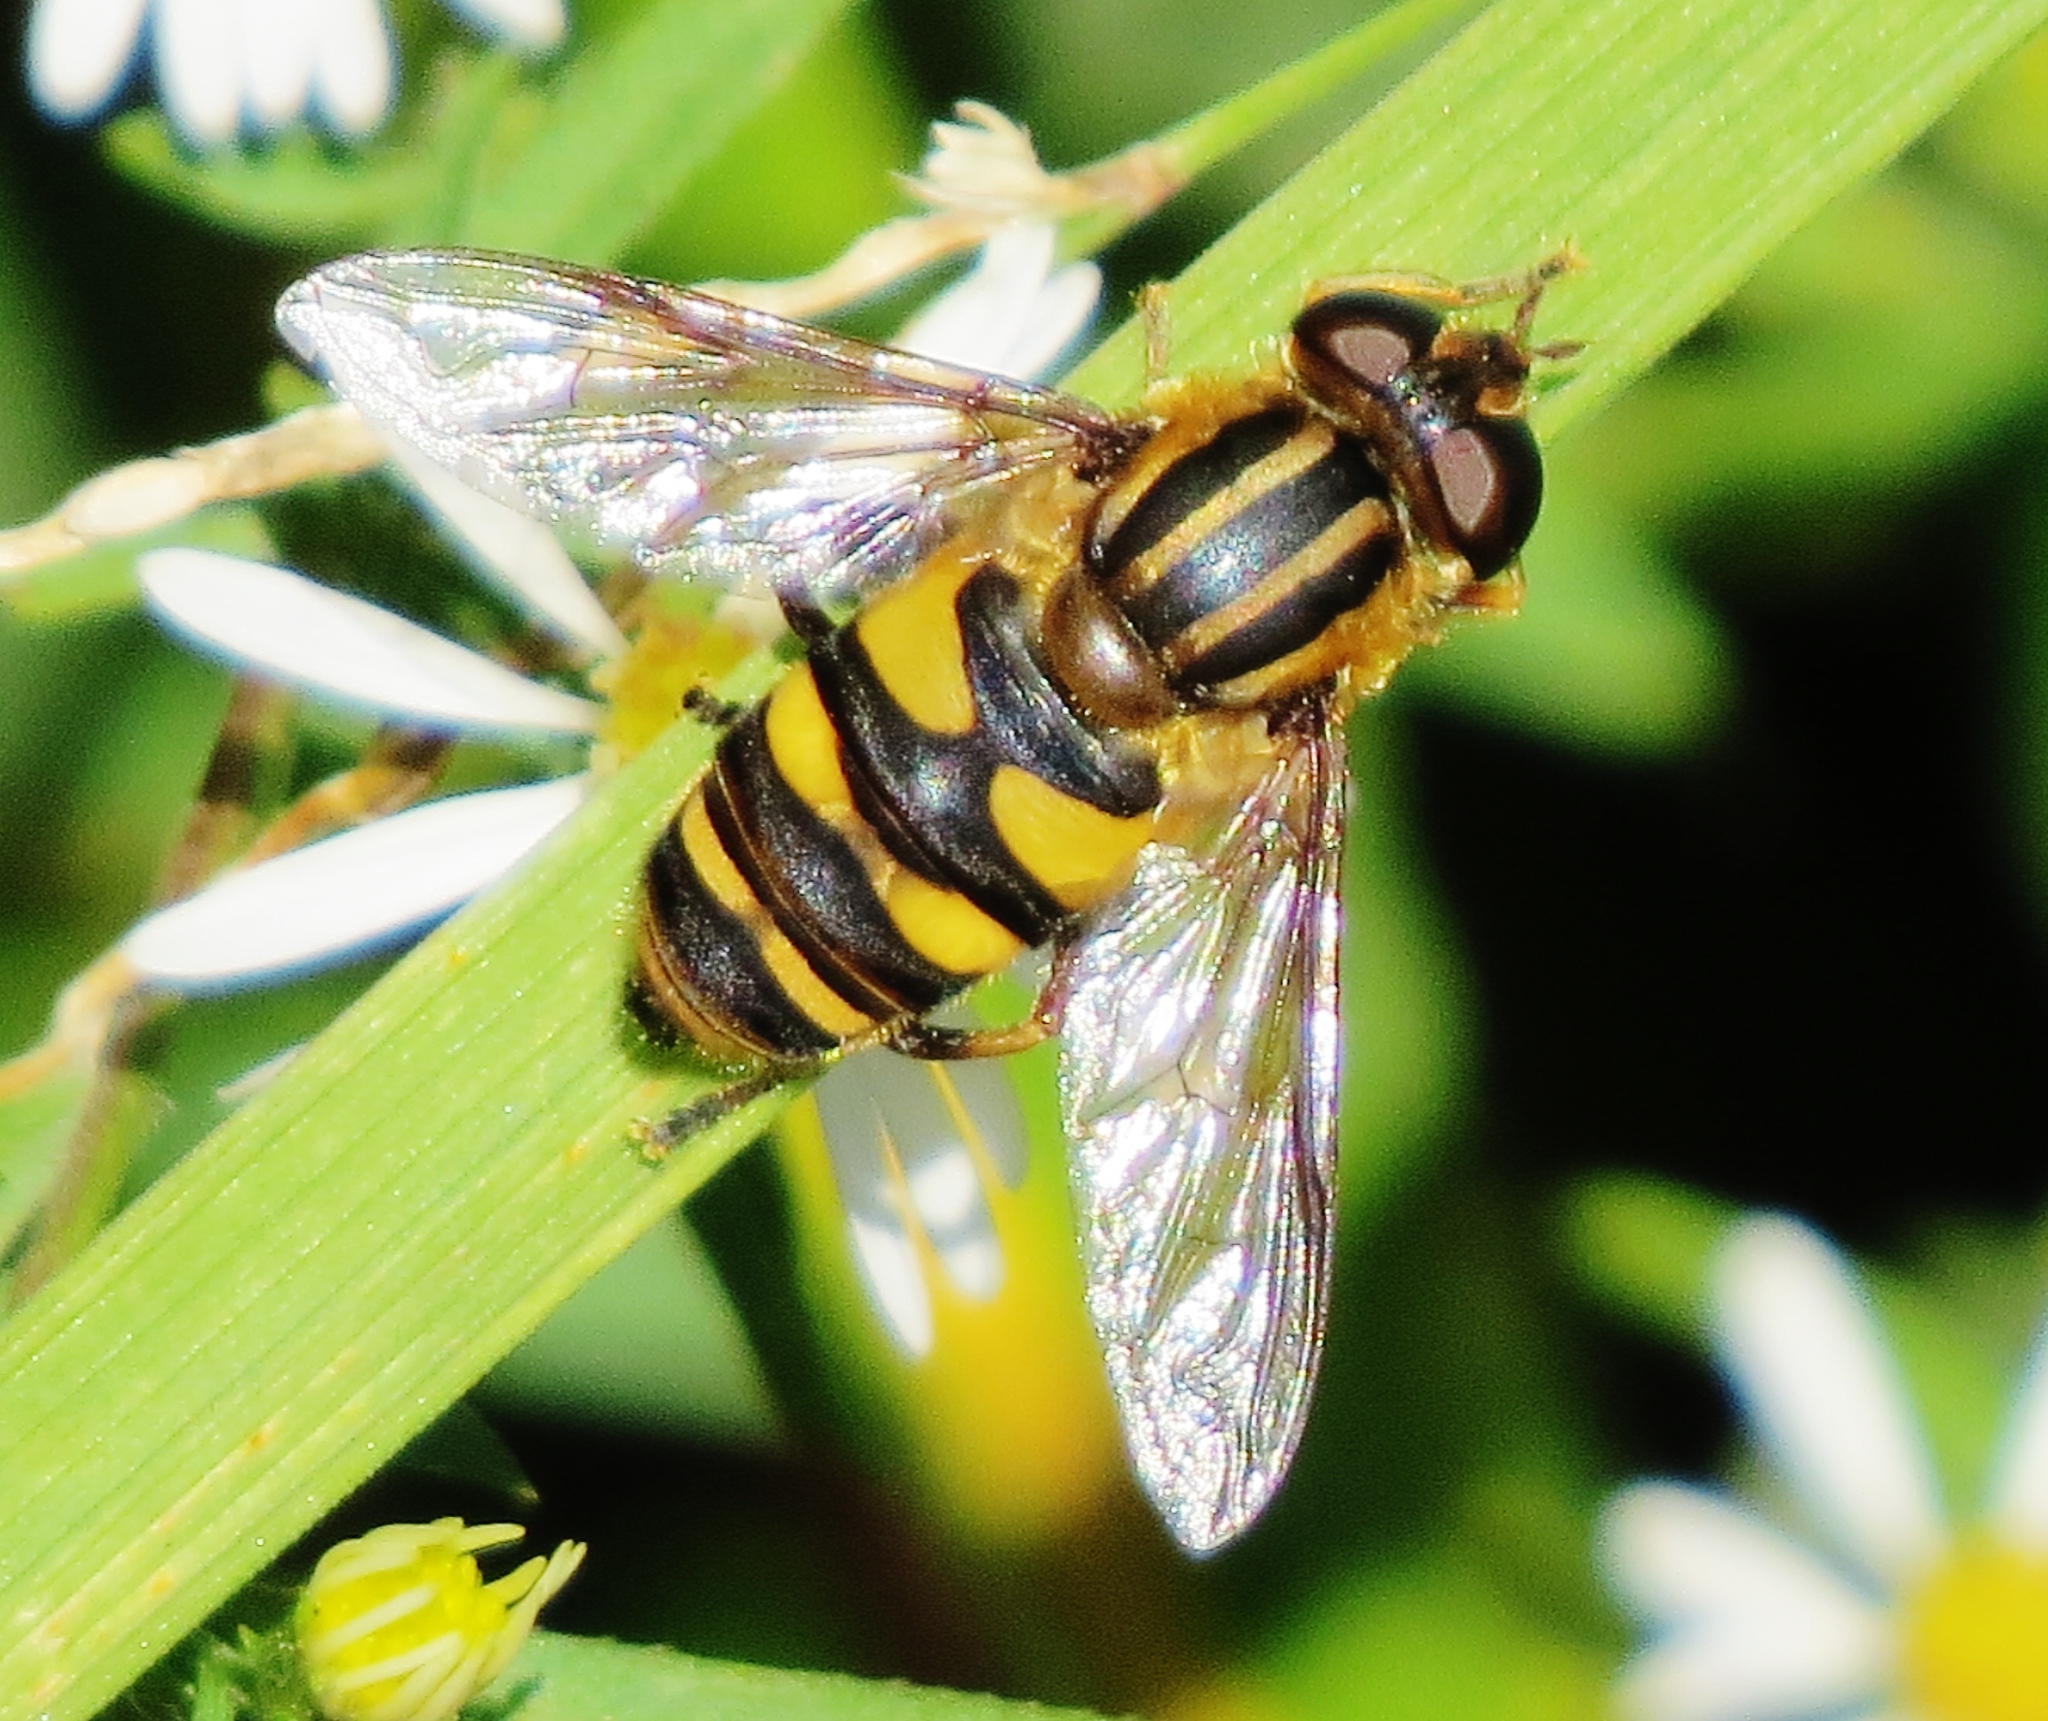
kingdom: Animalia
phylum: Arthropoda
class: Insecta
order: Diptera
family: Syrphidae
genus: Helophilus
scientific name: Helophilus fasciatus
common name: Narrow-headed marsh fly
